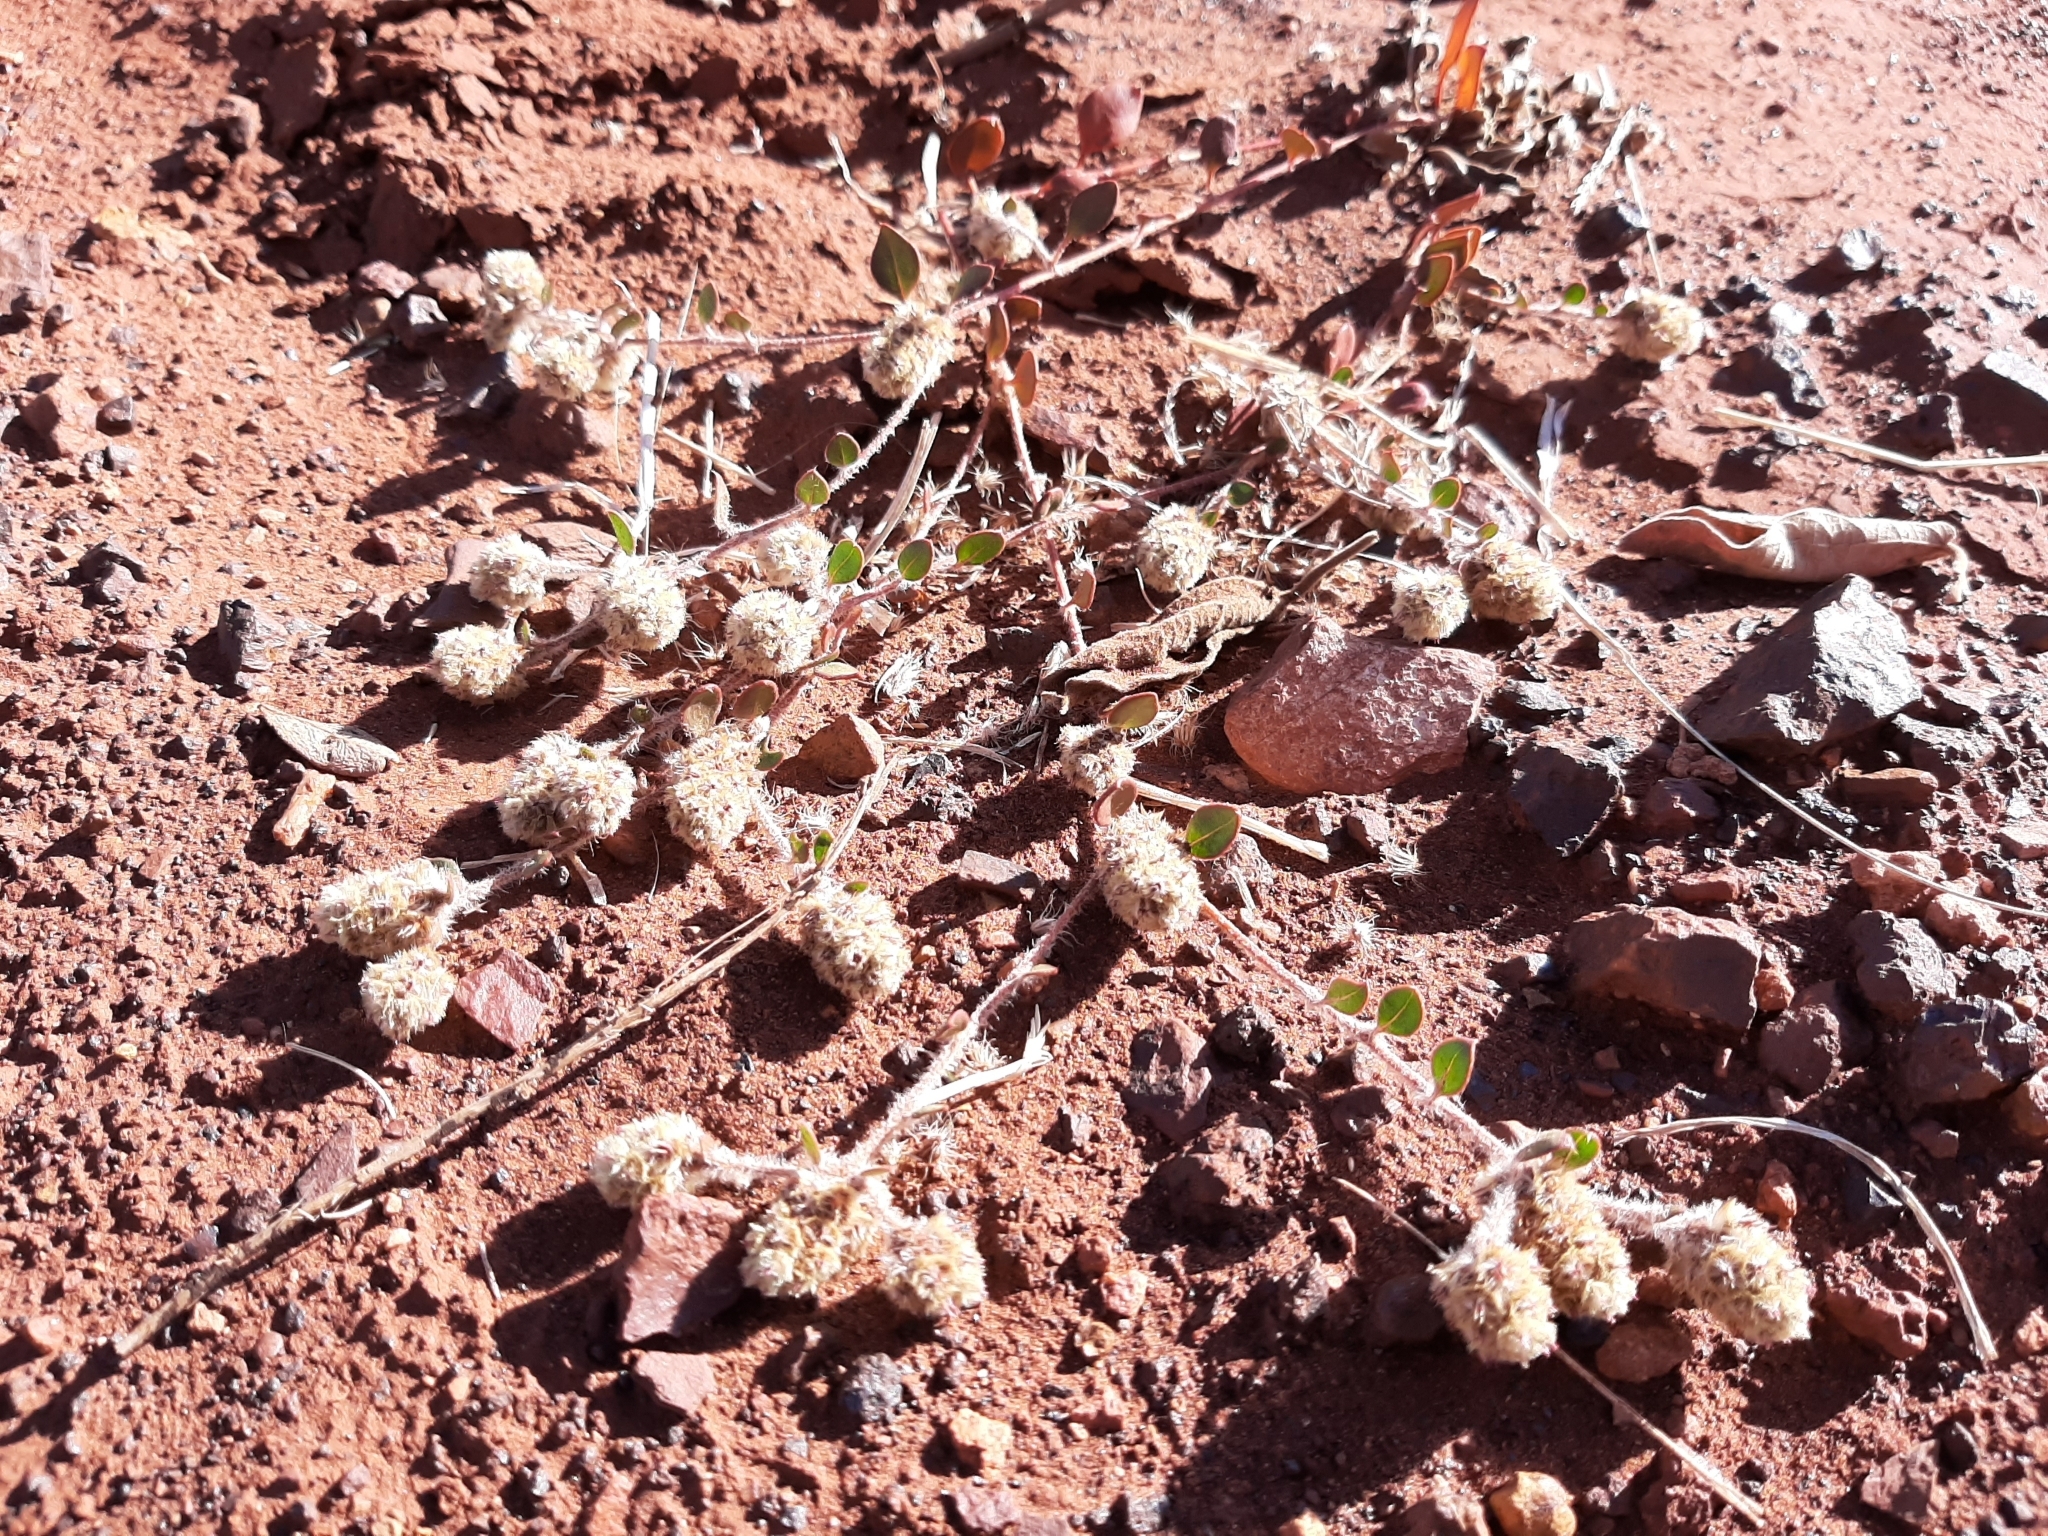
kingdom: Plantae
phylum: Tracheophyta
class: Magnoliopsida
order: Caryophyllales
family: Amaranthaceae
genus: Ptilotus
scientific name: Ptilotus aervoides
